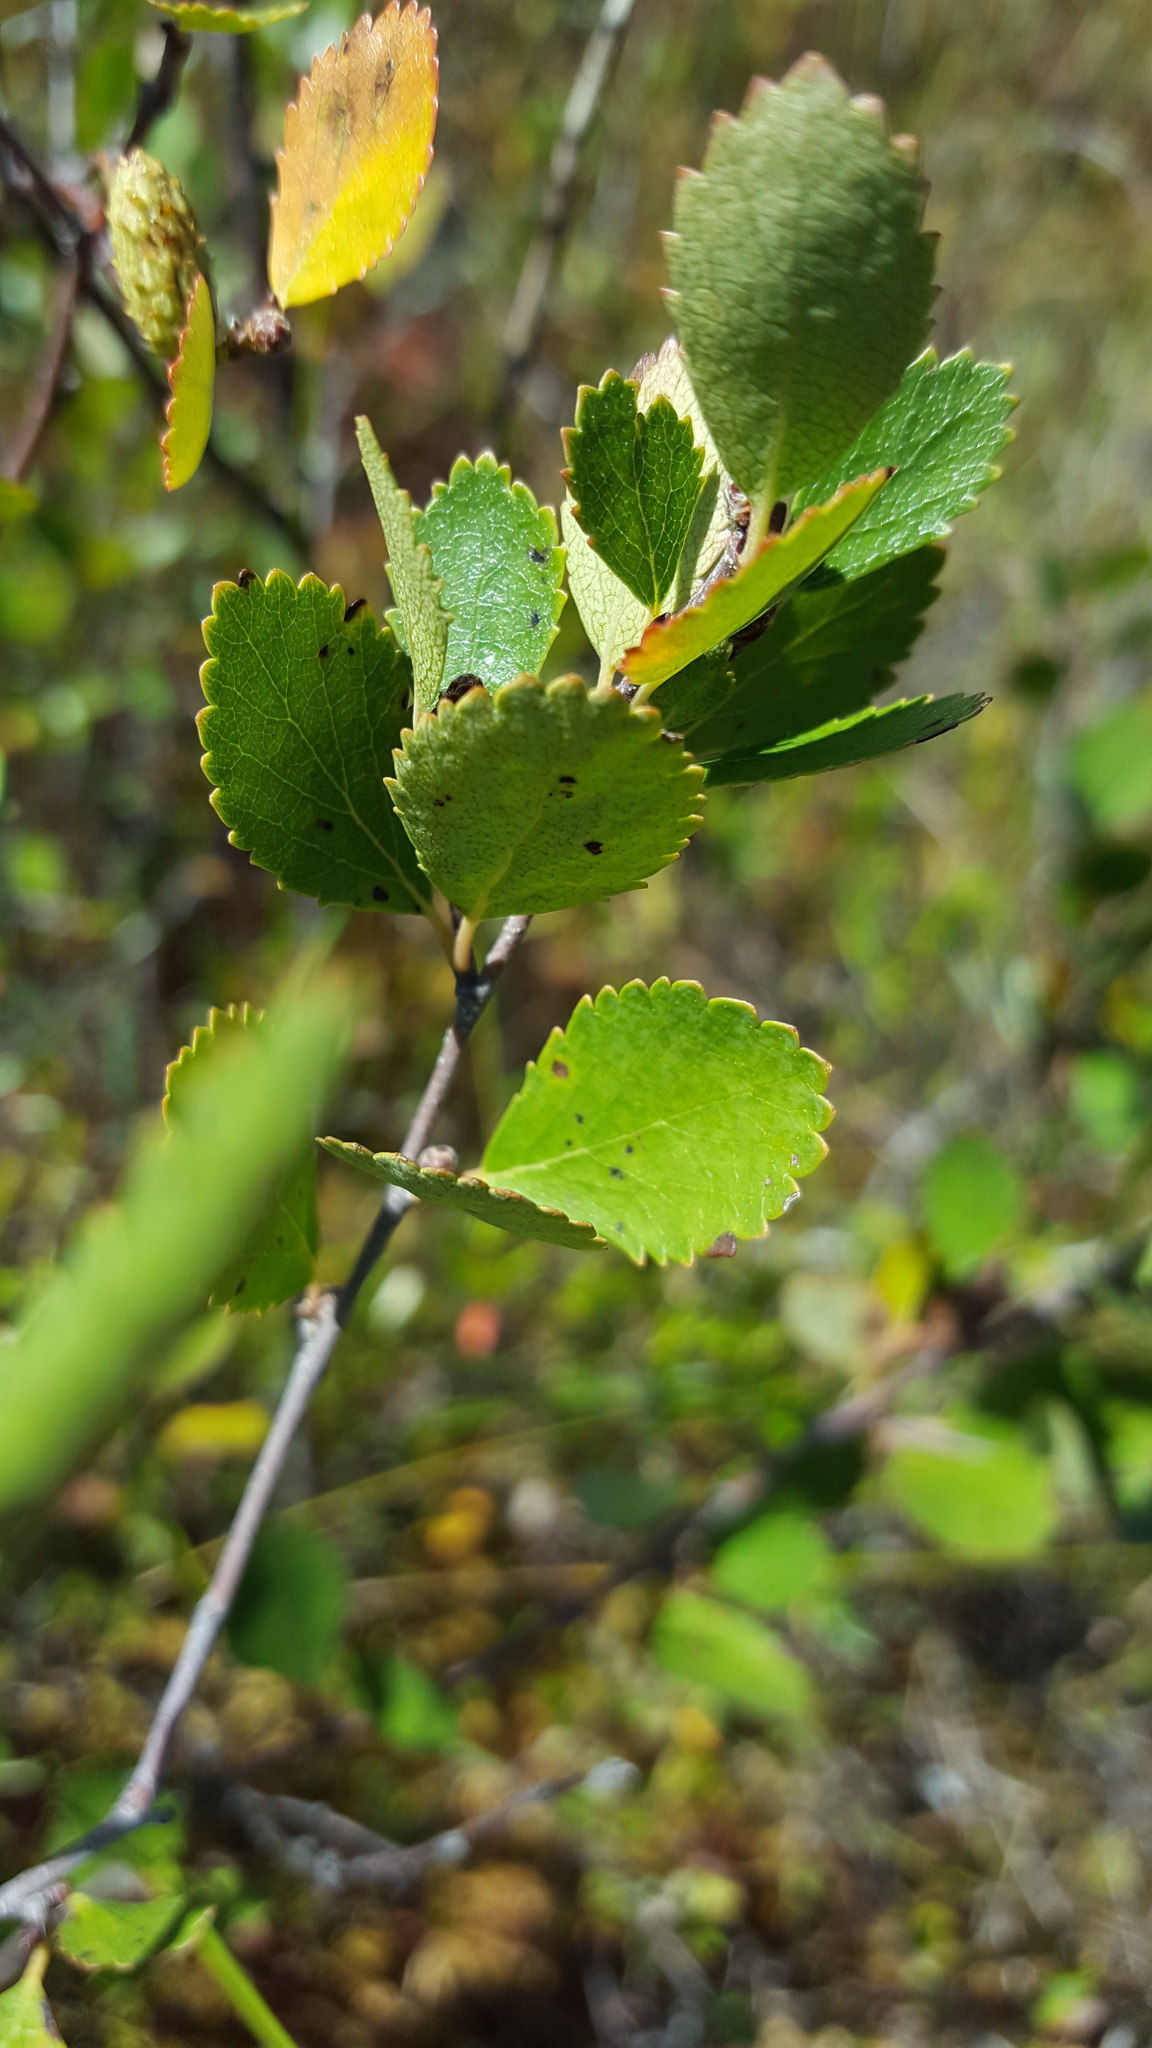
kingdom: Plantae
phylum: Tracheophyta
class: Magnoliopsida
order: Fagales
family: Betulaceae
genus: Betula
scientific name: Betula pumila
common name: Bog birch
